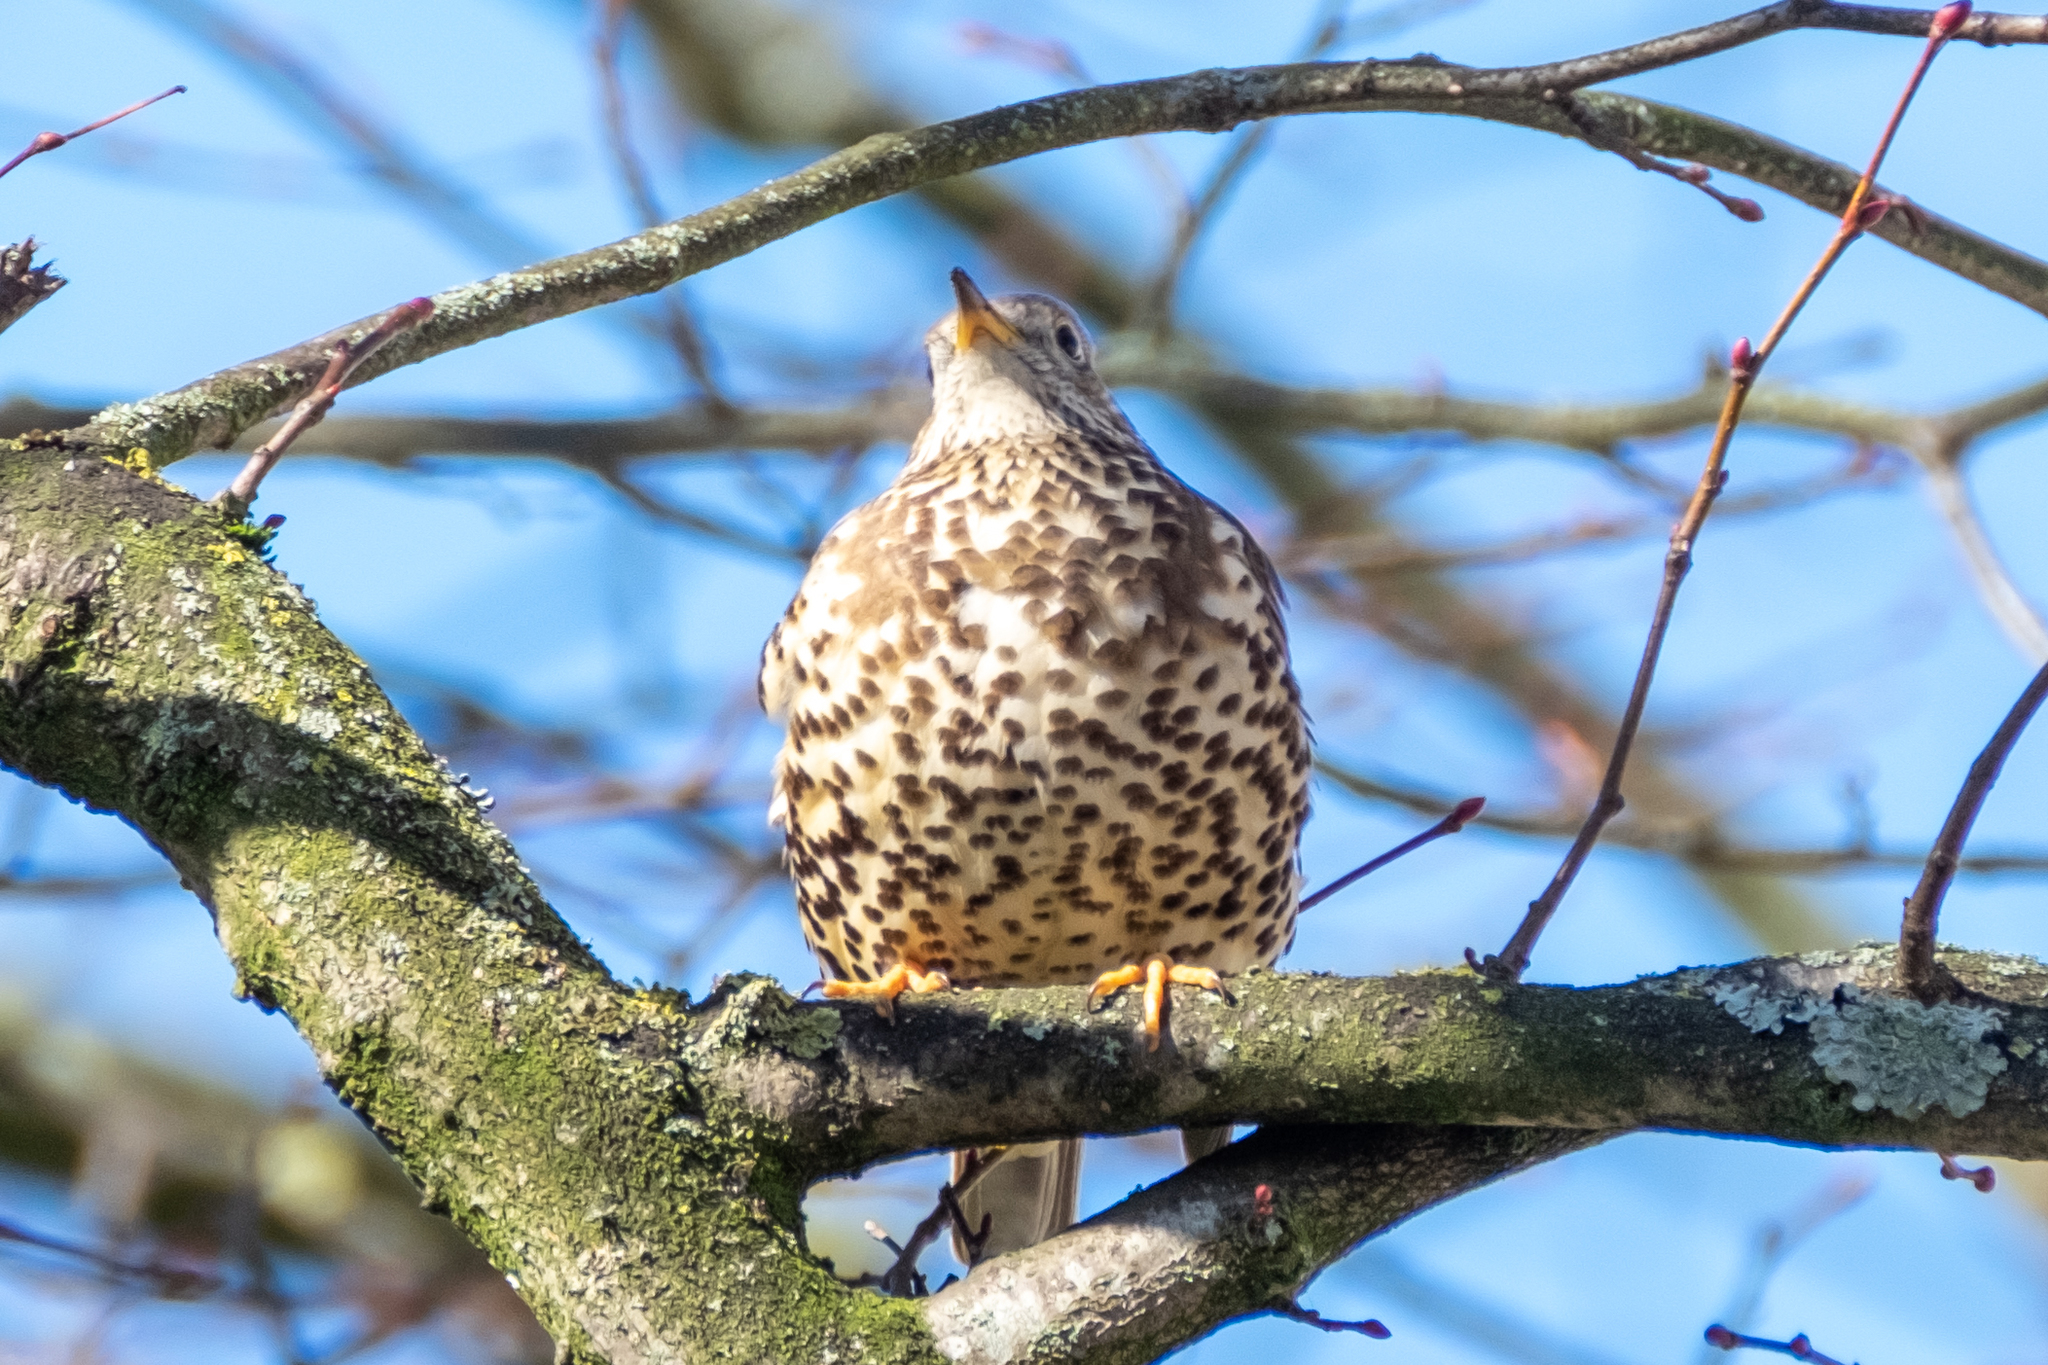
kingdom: Animalia
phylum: Chordata
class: Aves
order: Passeriformes
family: Turdidae
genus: Turdus
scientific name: Turdus viscivorus
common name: Mistle thrush
